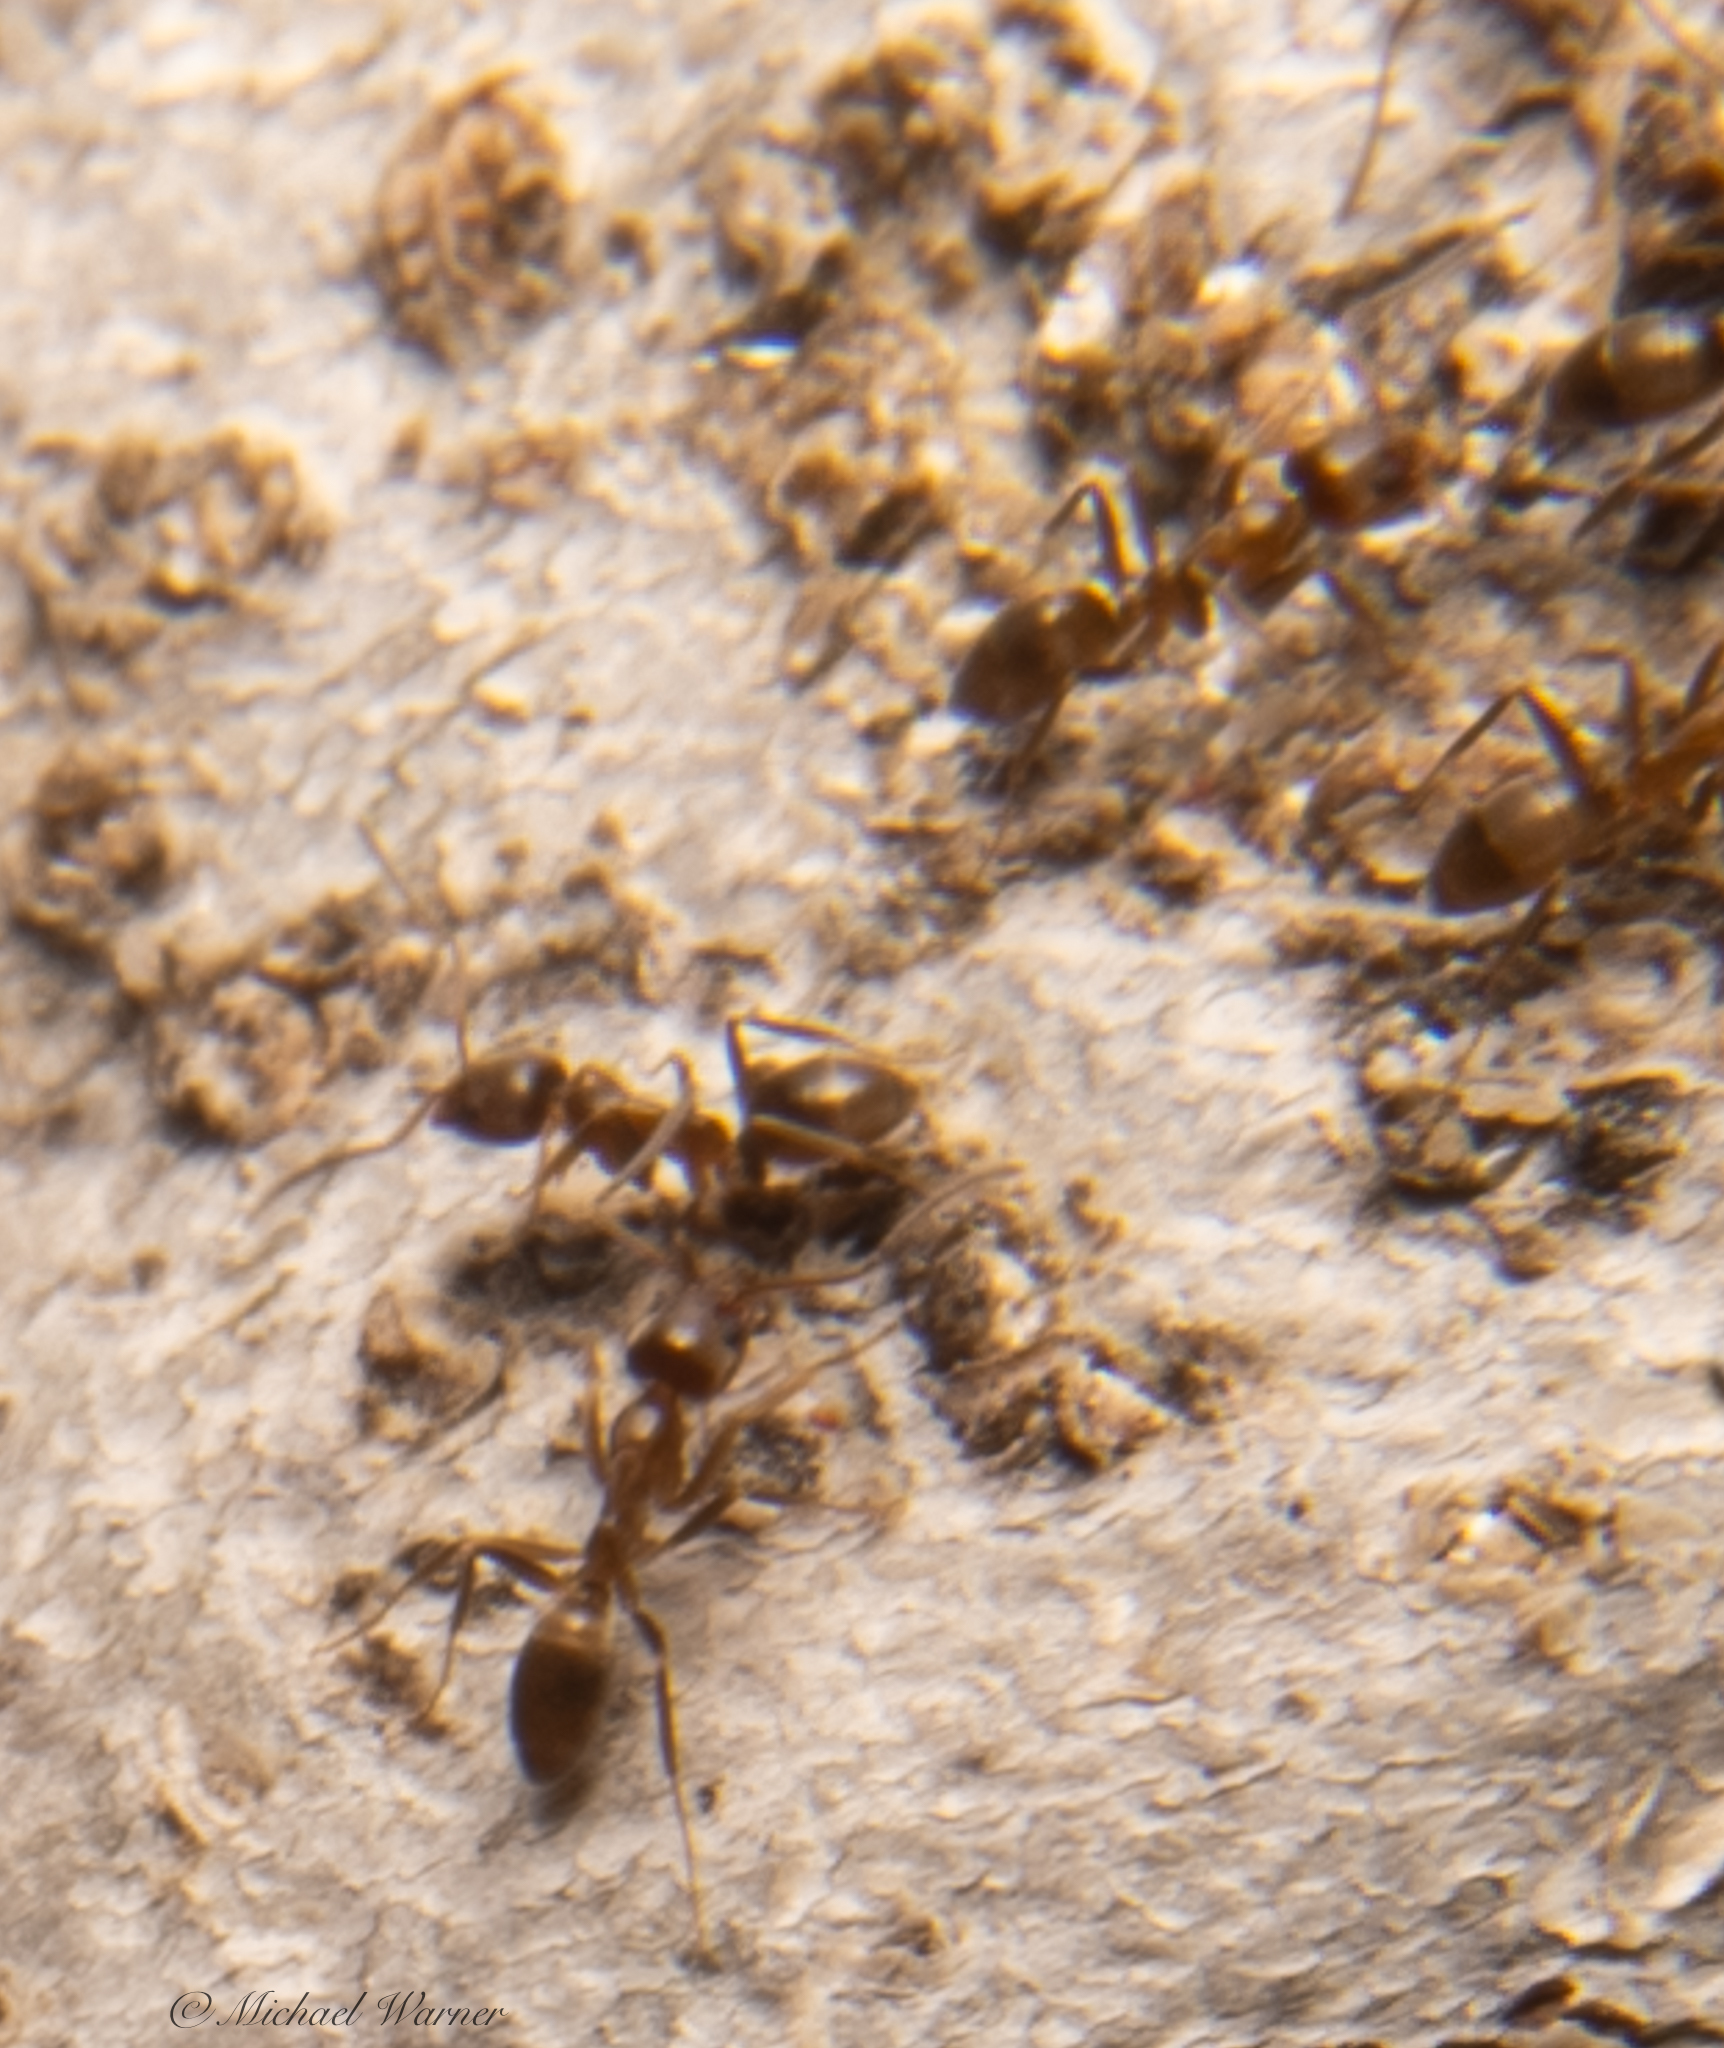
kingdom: Animalia
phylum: Arthropoda
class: Insecta
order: Hymenoptera
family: Formicidae
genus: Linepithema
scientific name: Linepithema humile
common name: Argentine ant
